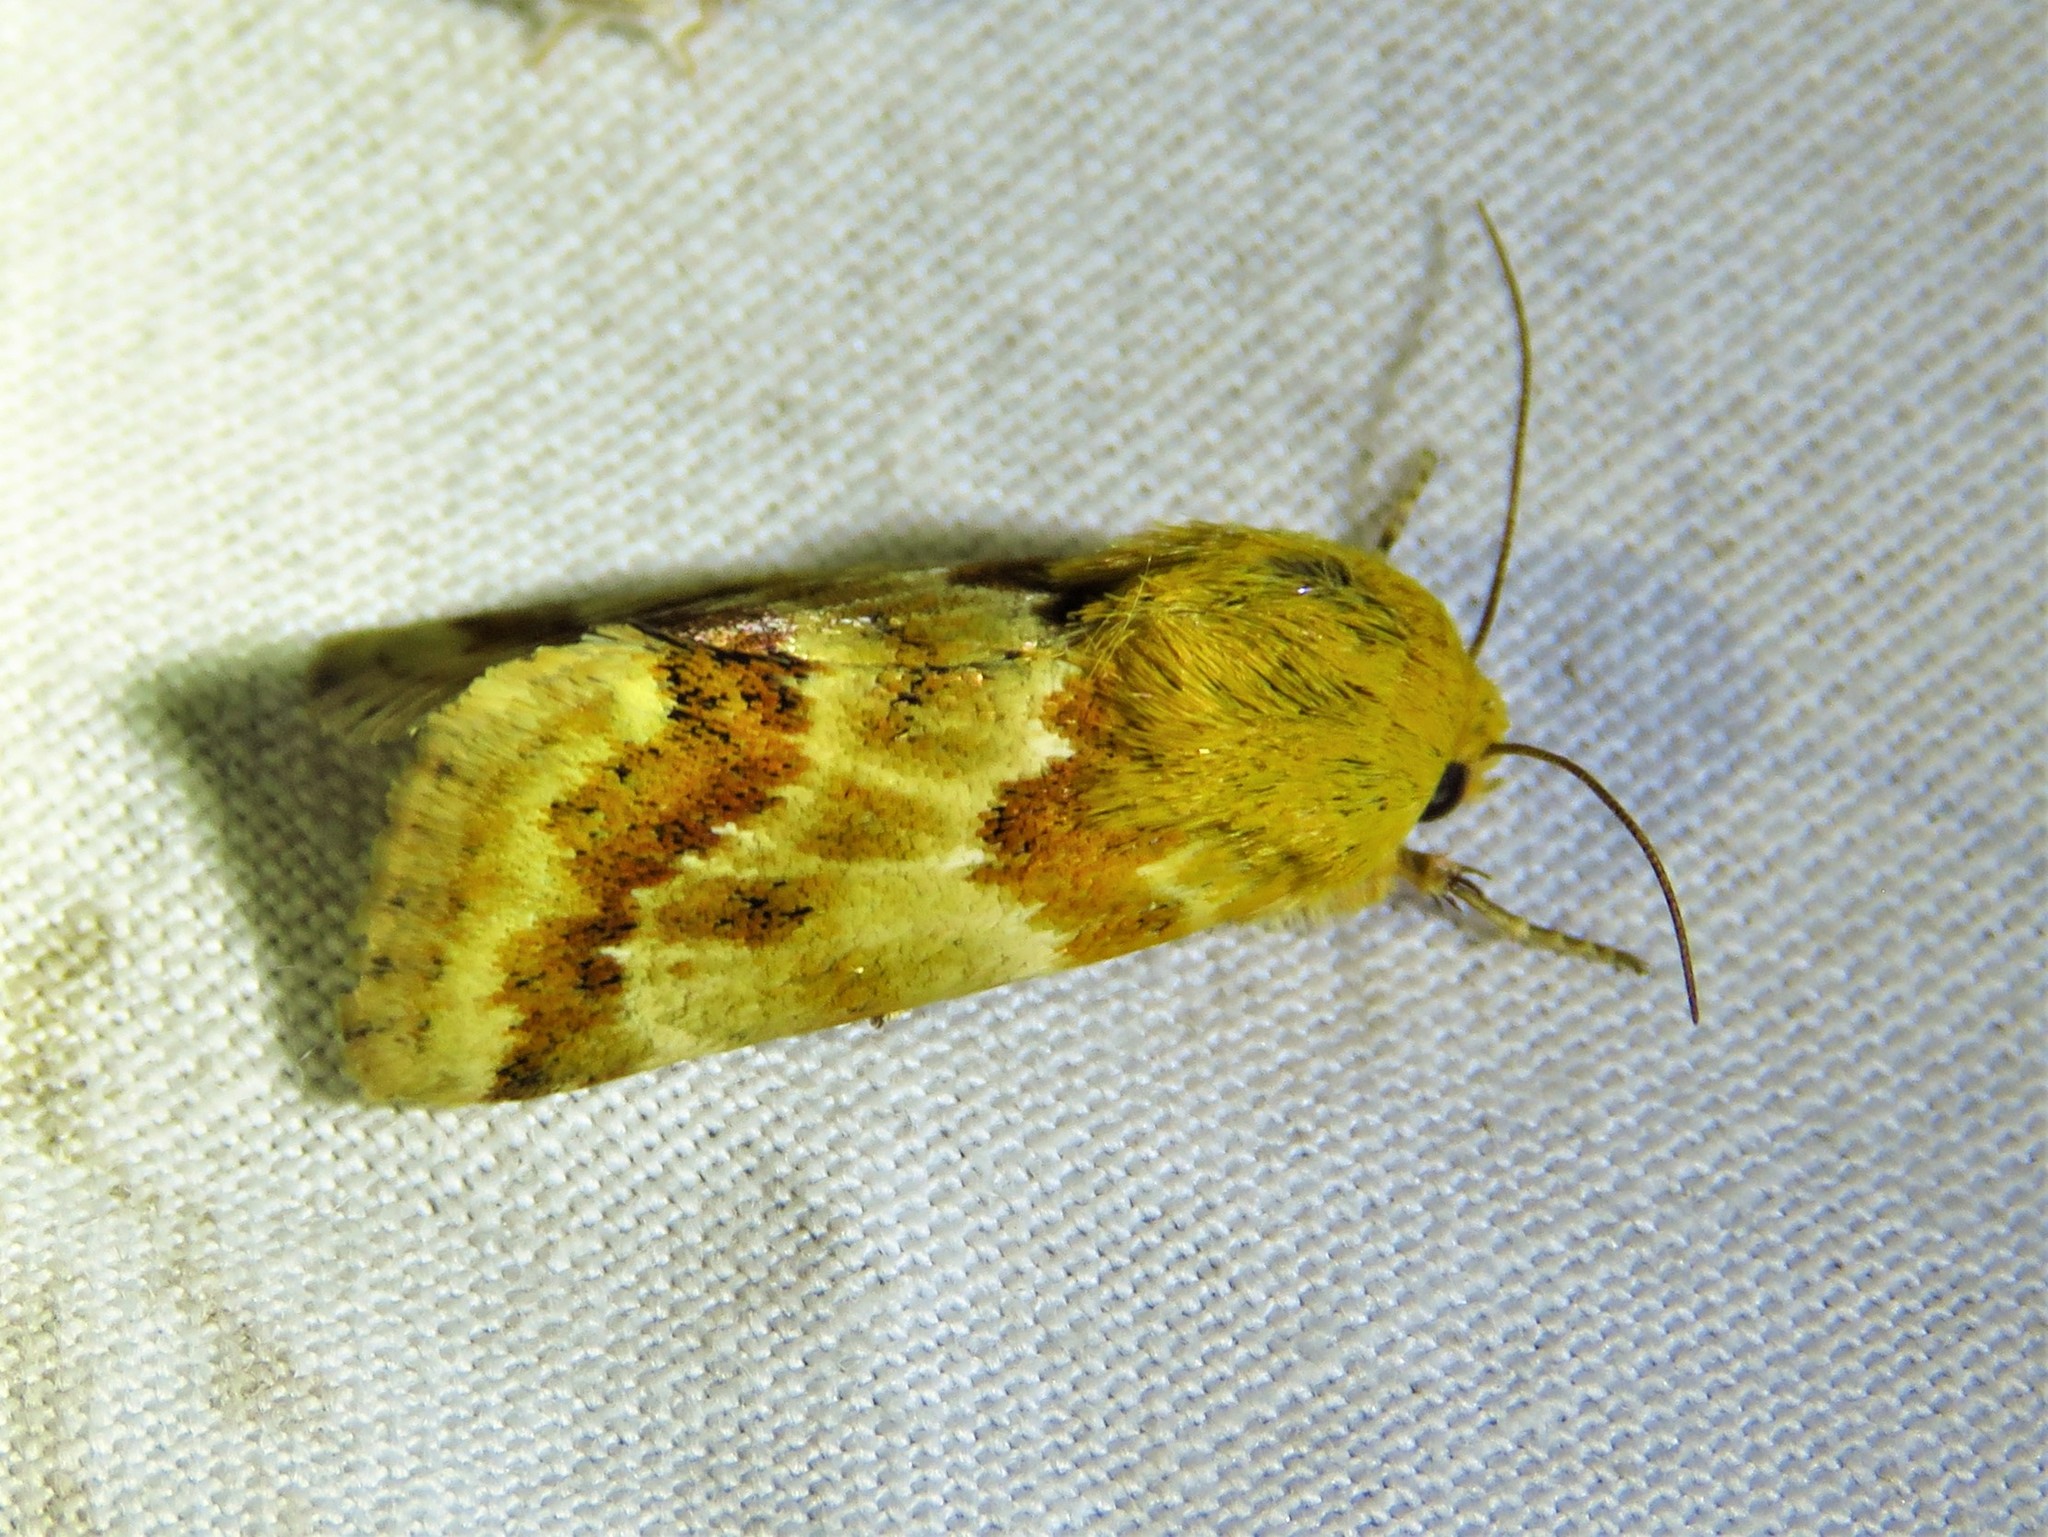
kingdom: Animalia
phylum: Arthropoda
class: Insecta
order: Lepidoptera
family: Noctuidae
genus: Schinia
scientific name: Schinia siren
